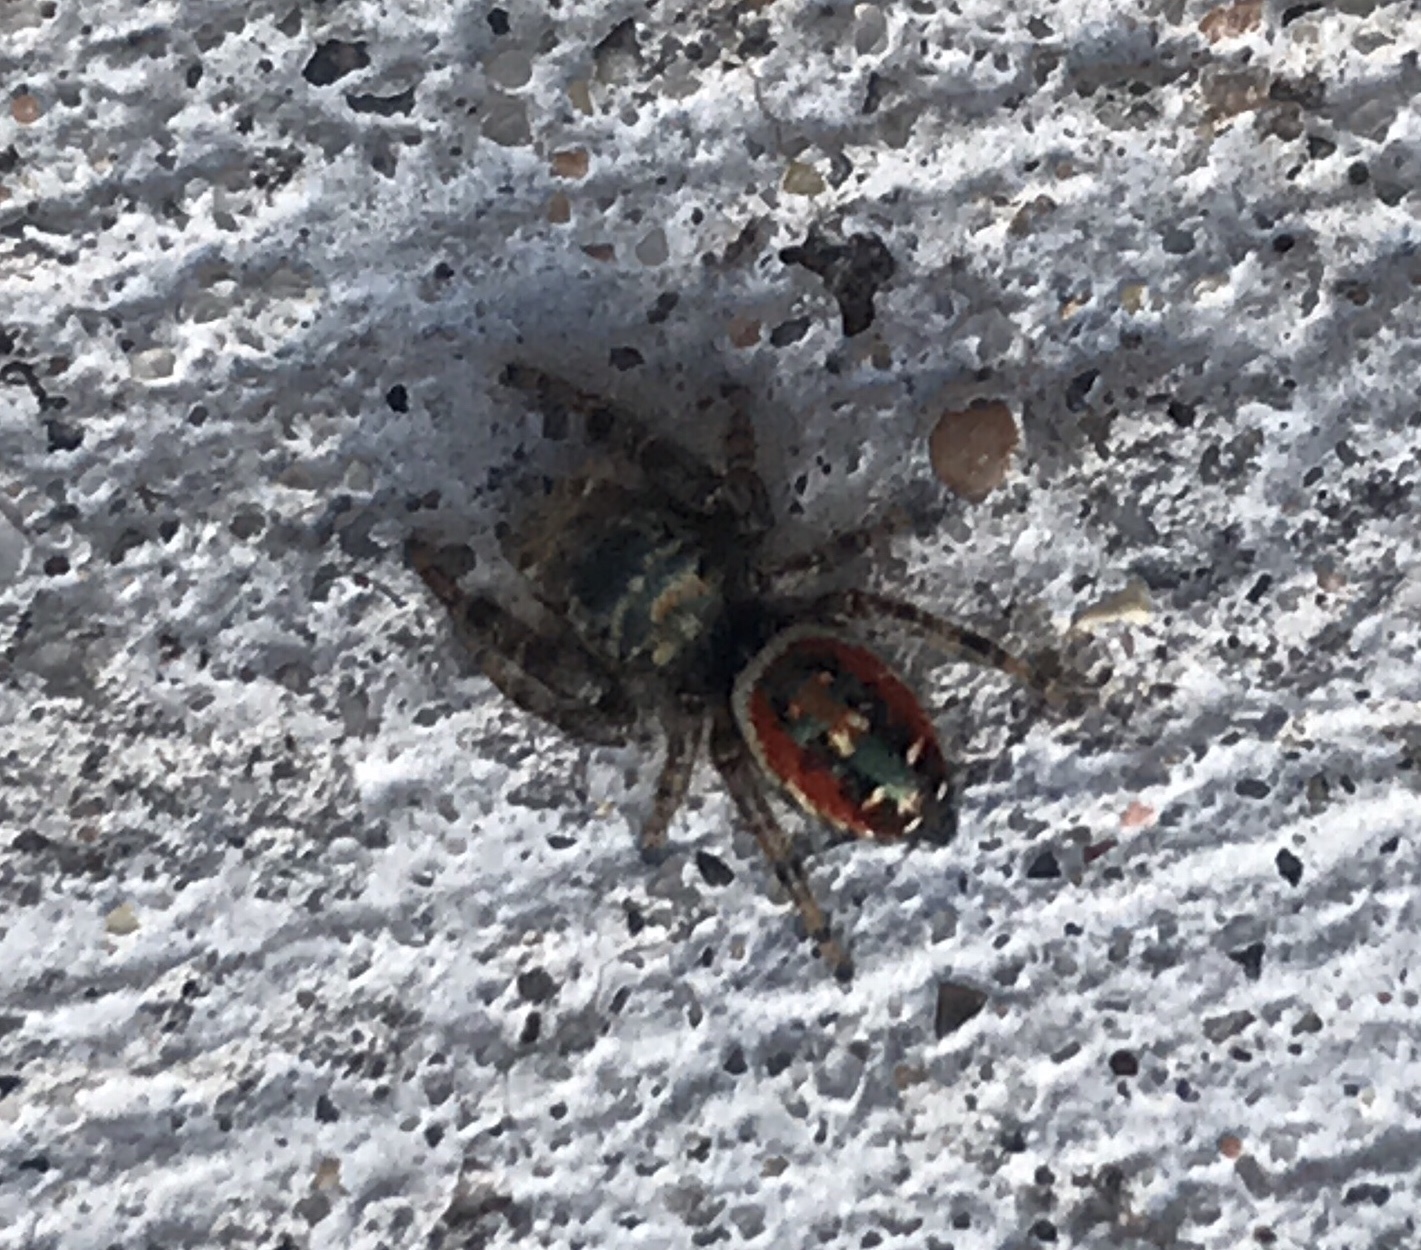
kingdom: Animalia
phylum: Arthropoda
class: Arachnida
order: Araneae
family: Salticidae
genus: Phidippus
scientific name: Phidippus carneus
